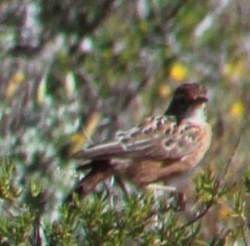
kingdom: Animalia
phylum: Chordata
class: Aves
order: Passeriformes
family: Alaudidae
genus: Chersomanes
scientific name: Chersomanes albofasciata
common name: Spike-heeled lark
